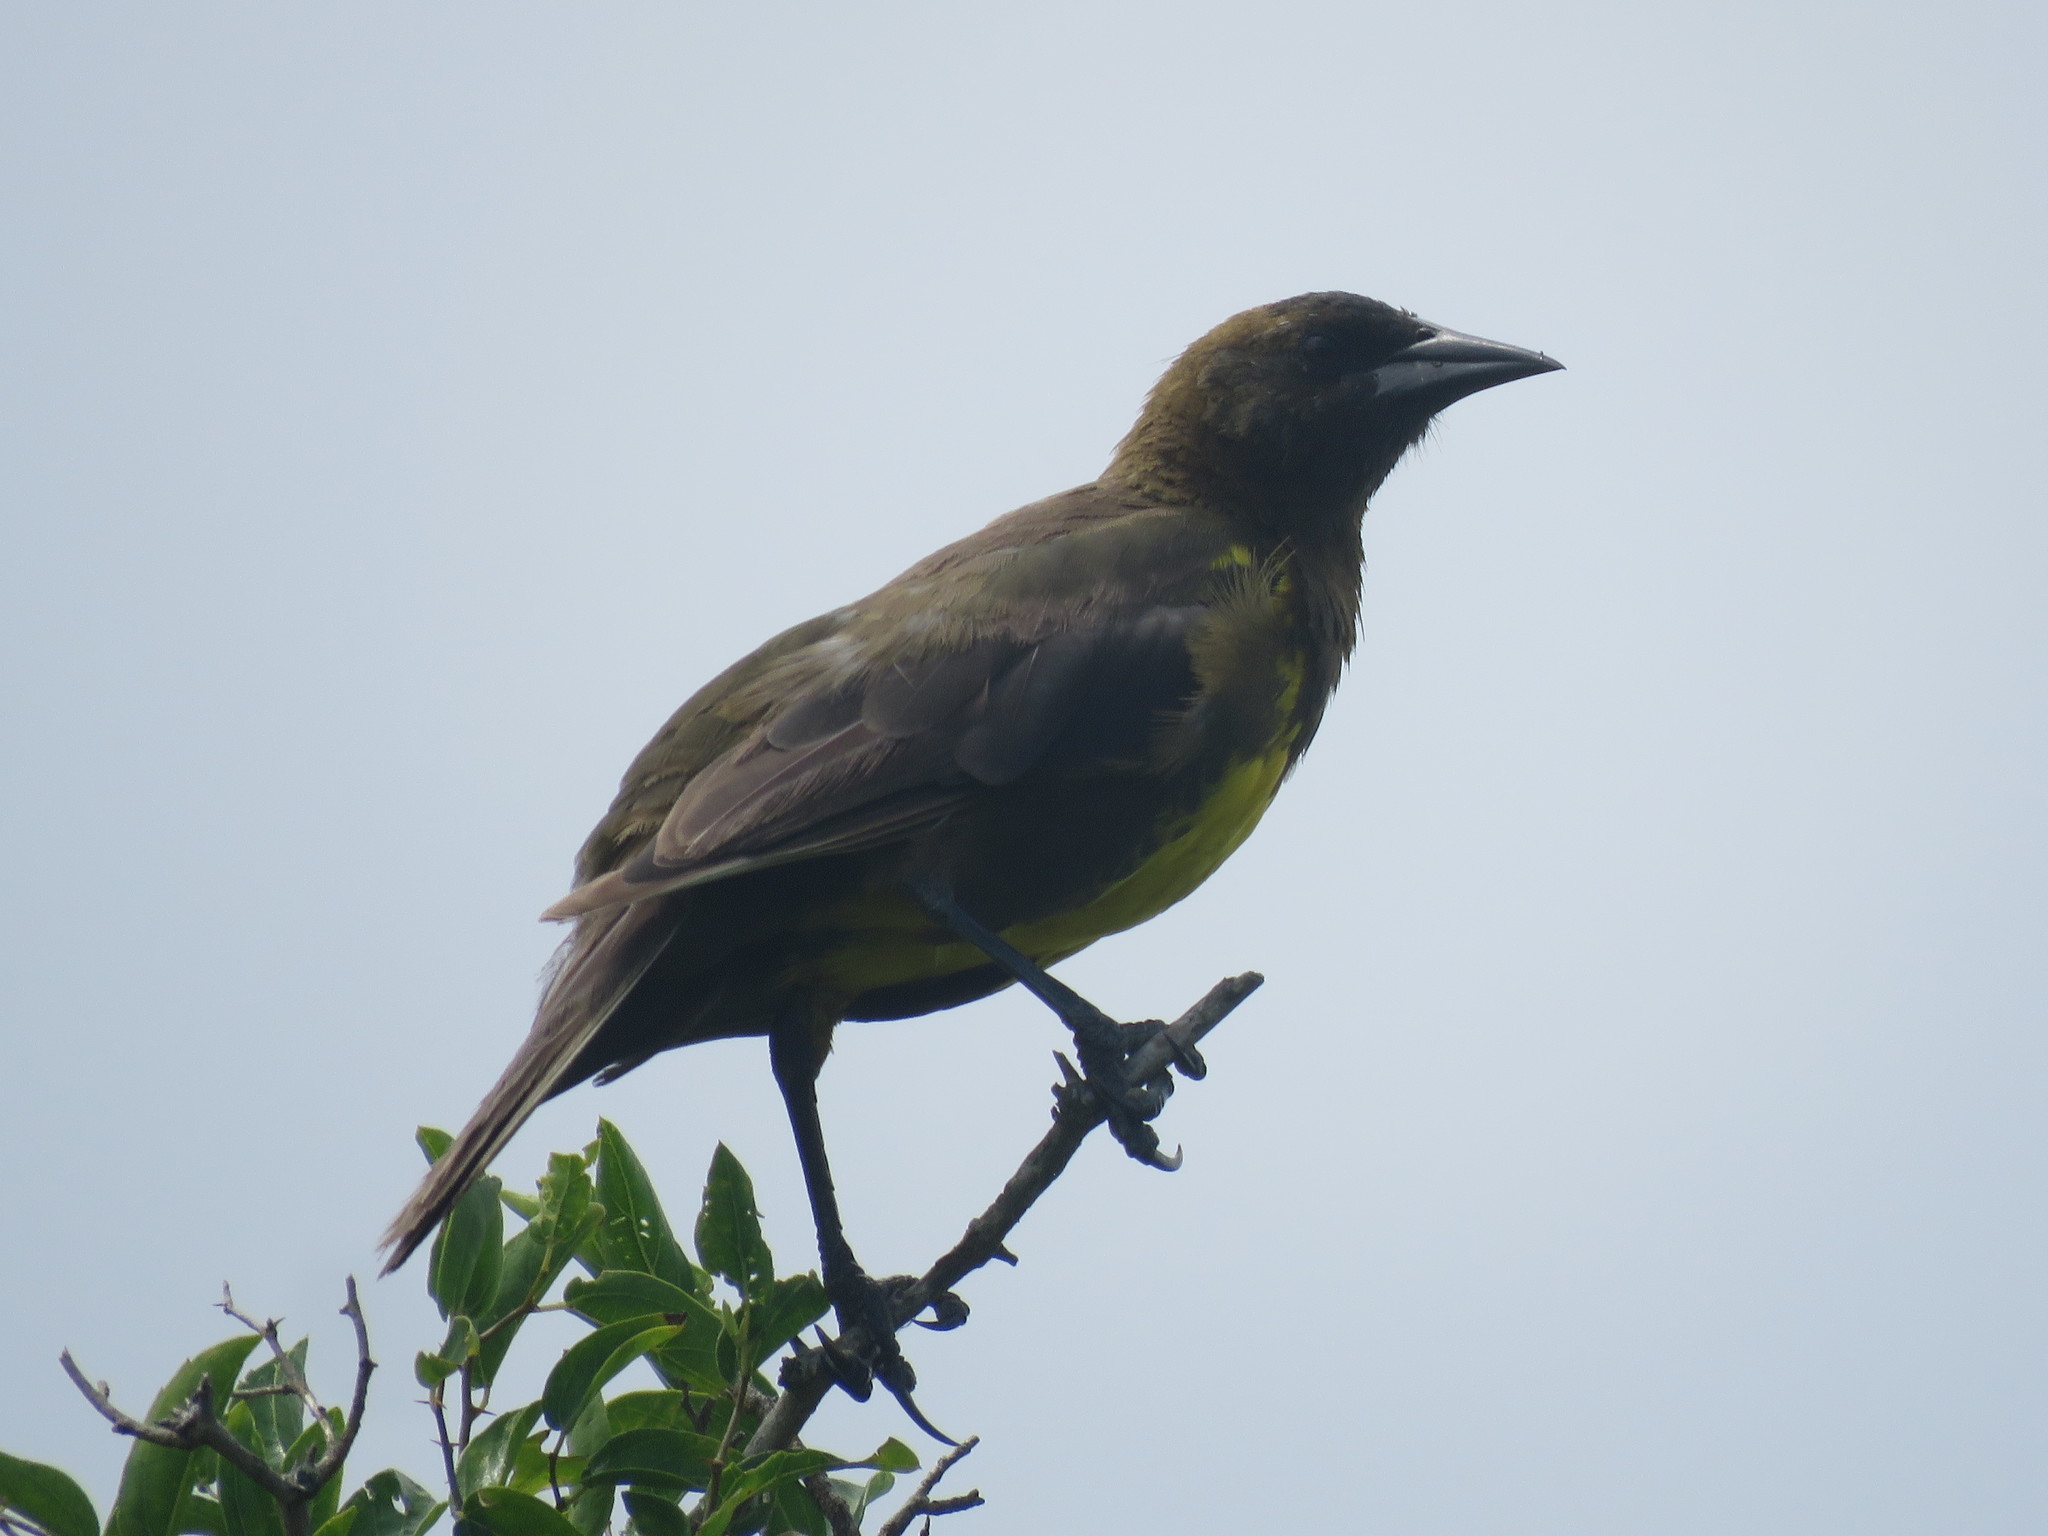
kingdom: Animalia
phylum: Chordata
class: Aves
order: Passeriformes
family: Icteridae
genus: Pseudoleistes
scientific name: Pseudoleistes virescens
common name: Brown-and-yellow marshbird
